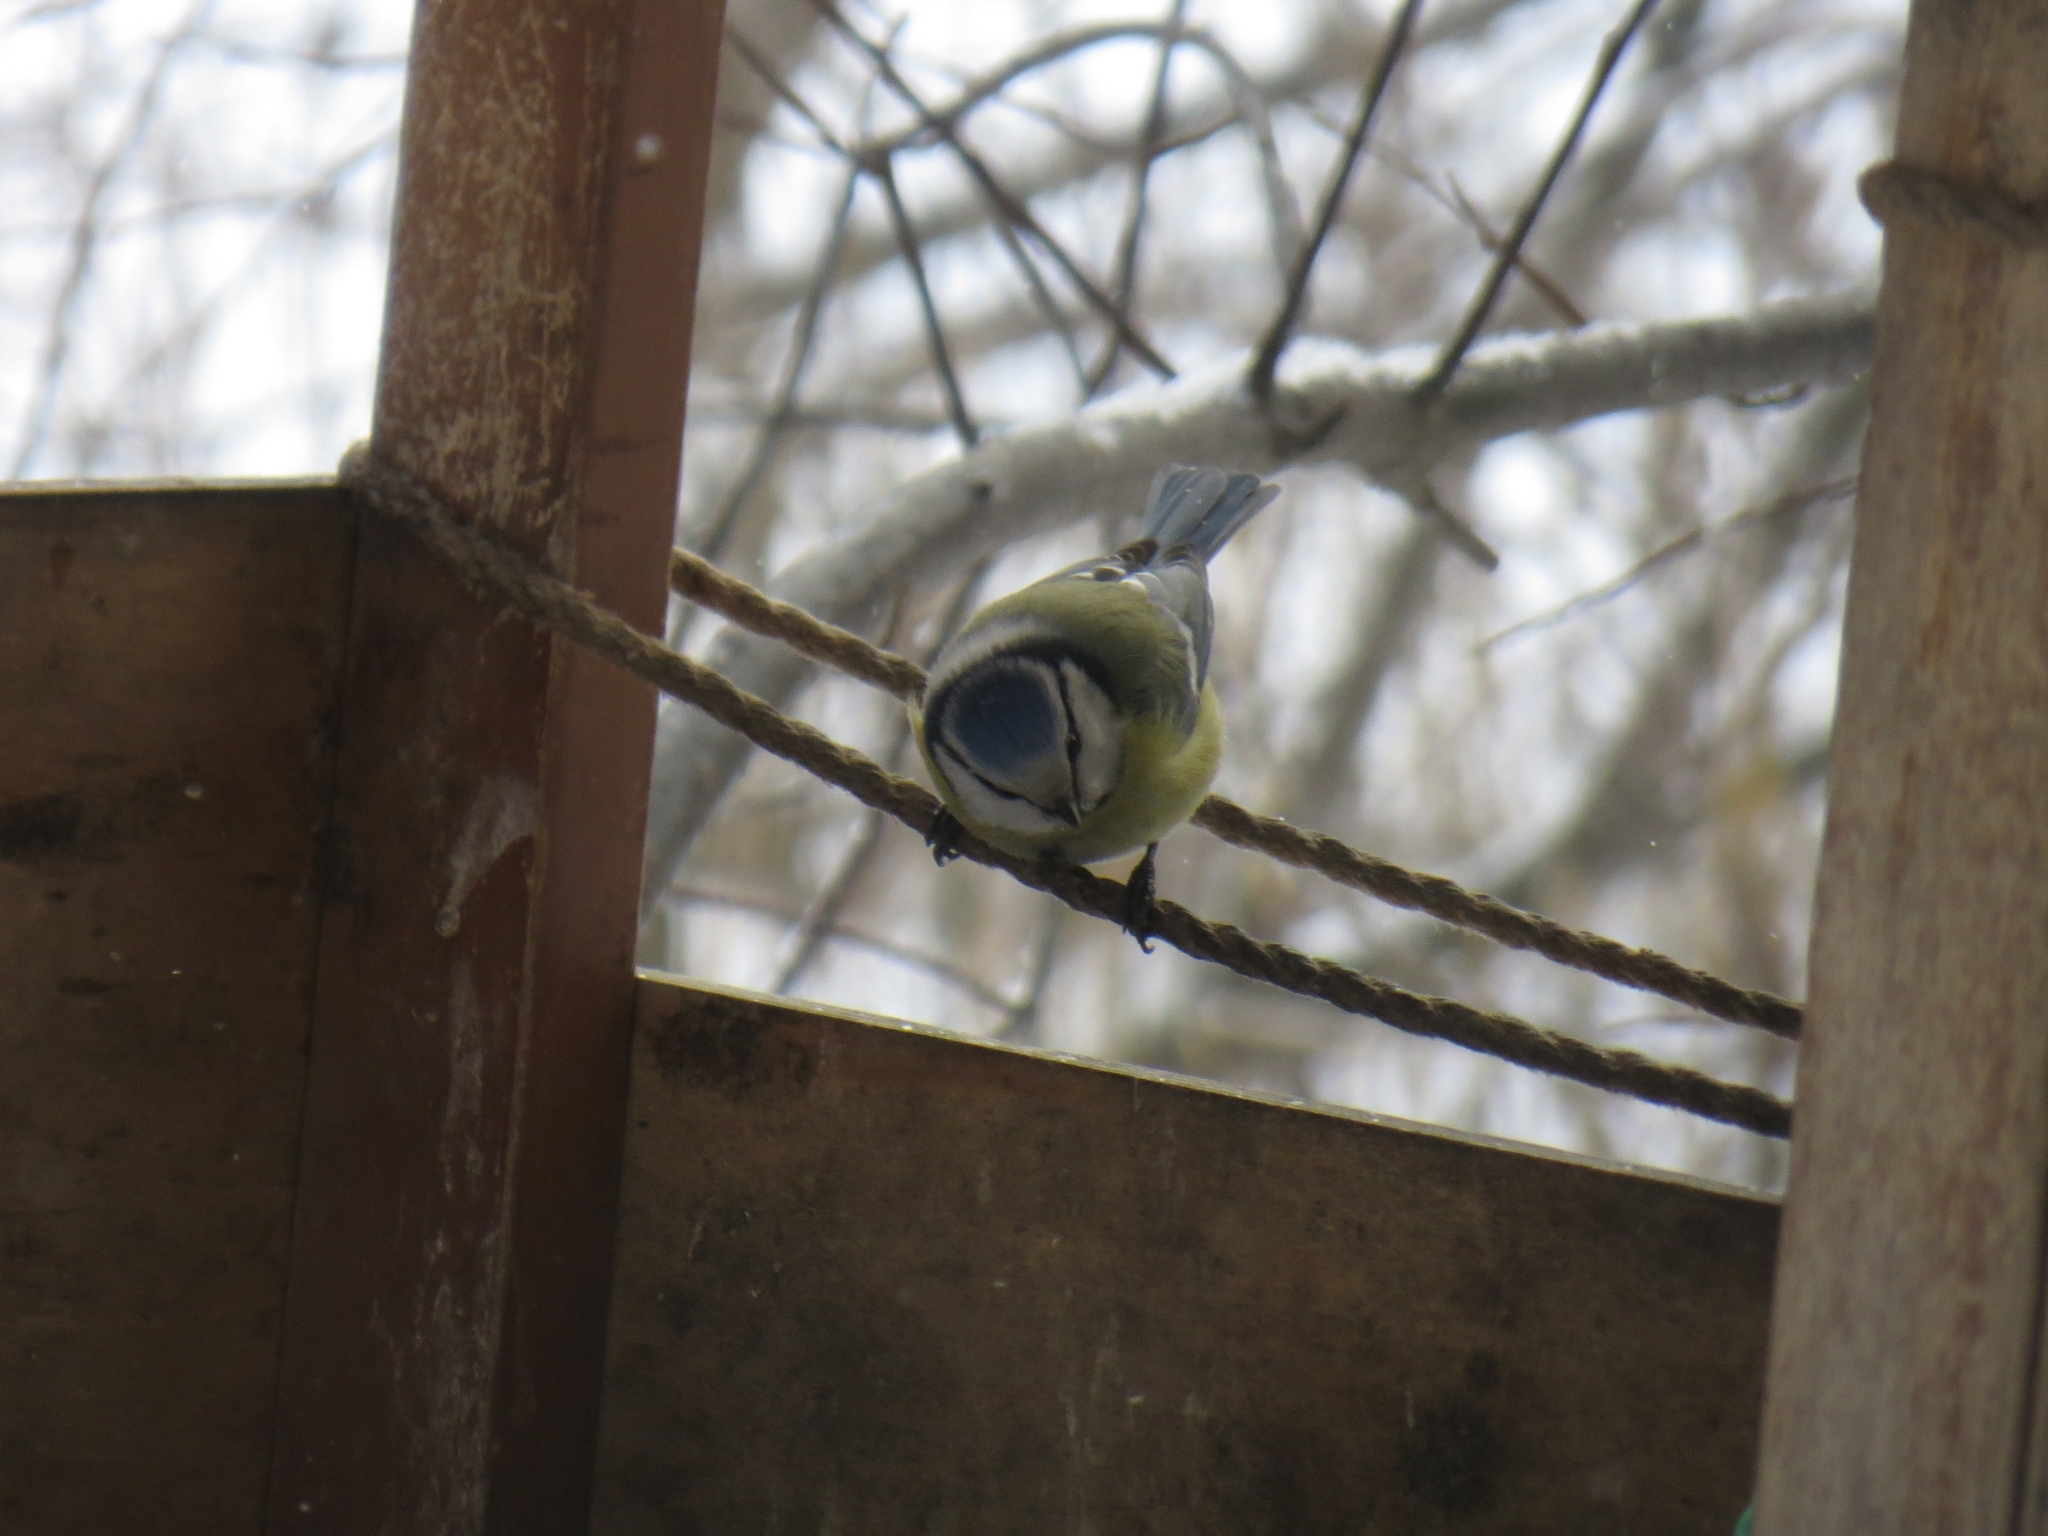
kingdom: Animalia
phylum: Chordata
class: Aves
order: Passeriformes
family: Paridae
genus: Cyanistes
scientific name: Cyanistes caeruleus
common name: Eurasian blue tit
